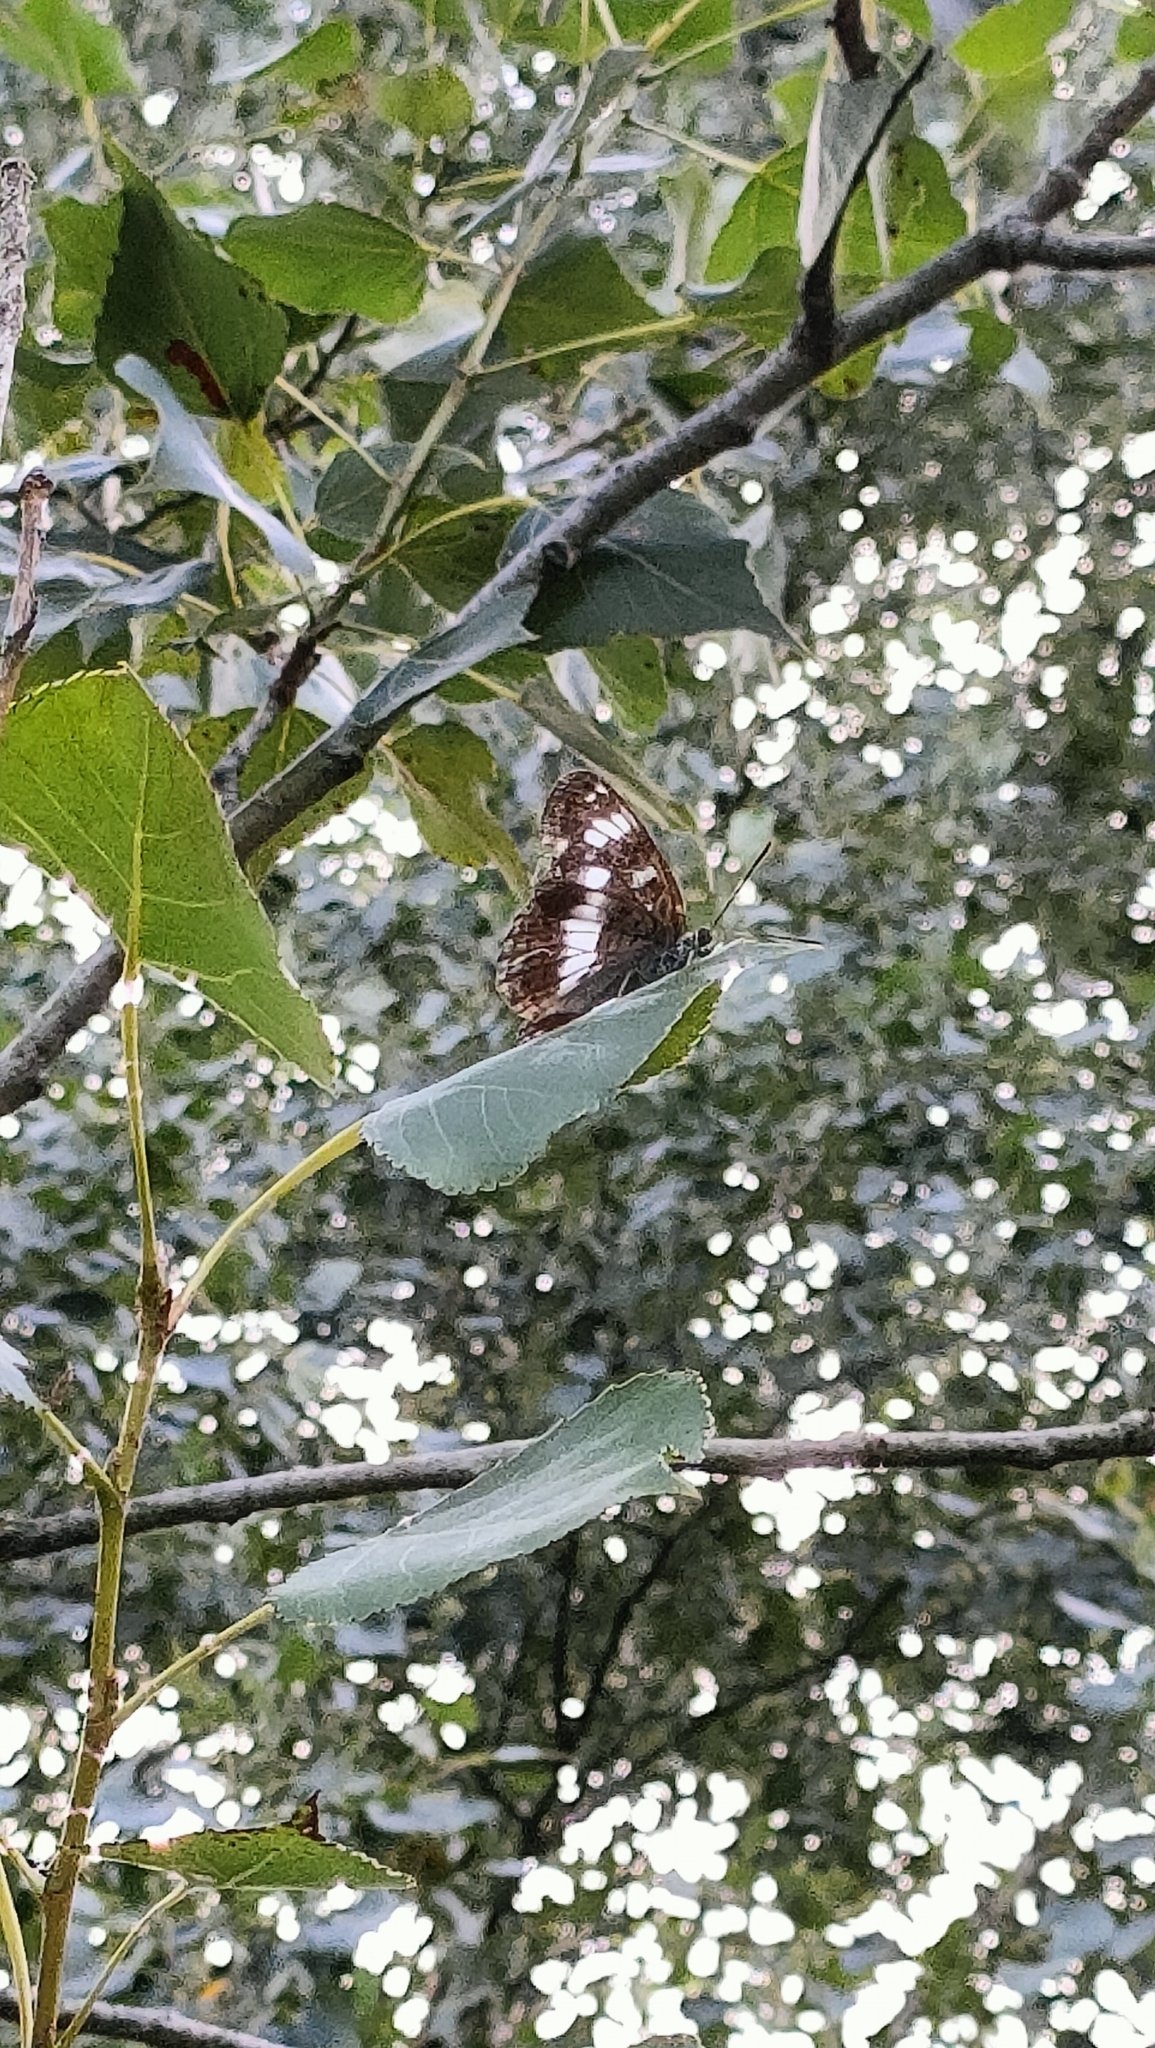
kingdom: Animalia
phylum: Arthropoda
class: Insecta
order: Lepidoptera
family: Nymphalidae
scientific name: Nymphalidae
